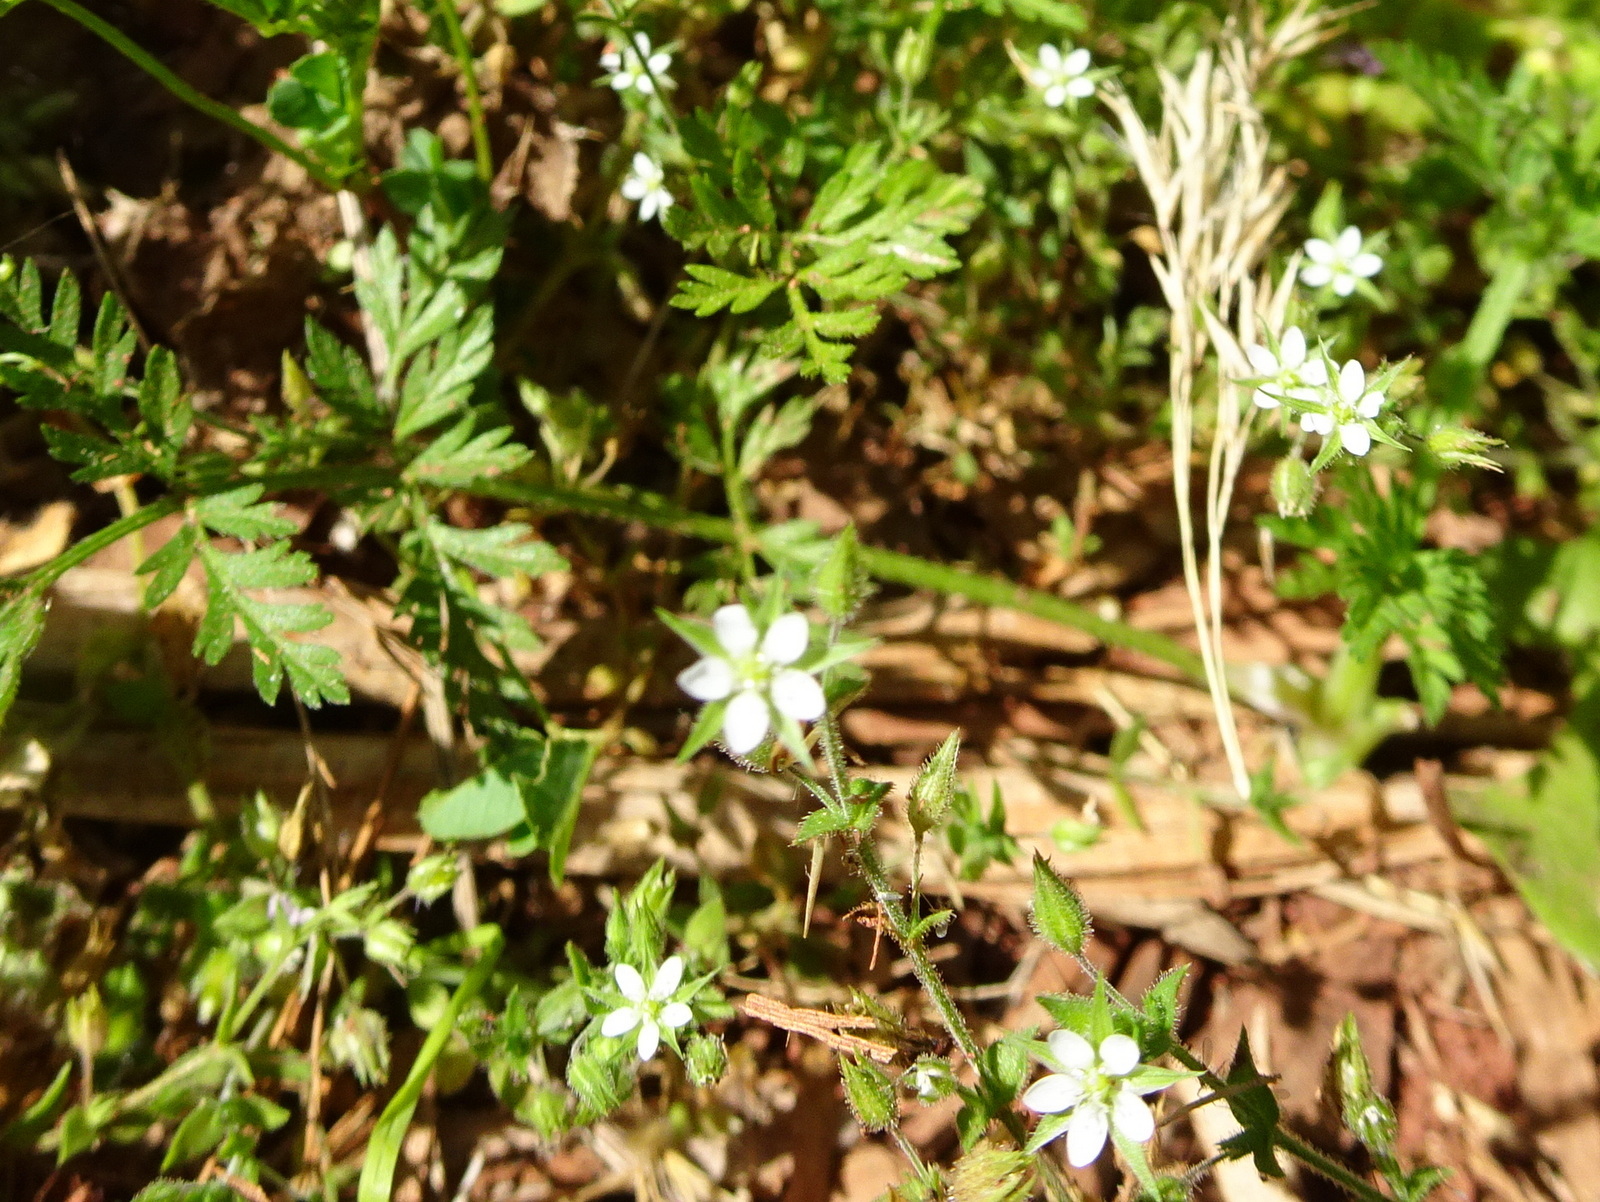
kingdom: Plantae
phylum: Tracheophyta
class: Magnoliopsida
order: Caryophyllales
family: Caryophyllaceae
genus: Arenaria
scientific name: Arenaria serpyllifolia
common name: Thyme-leaved sandwort
